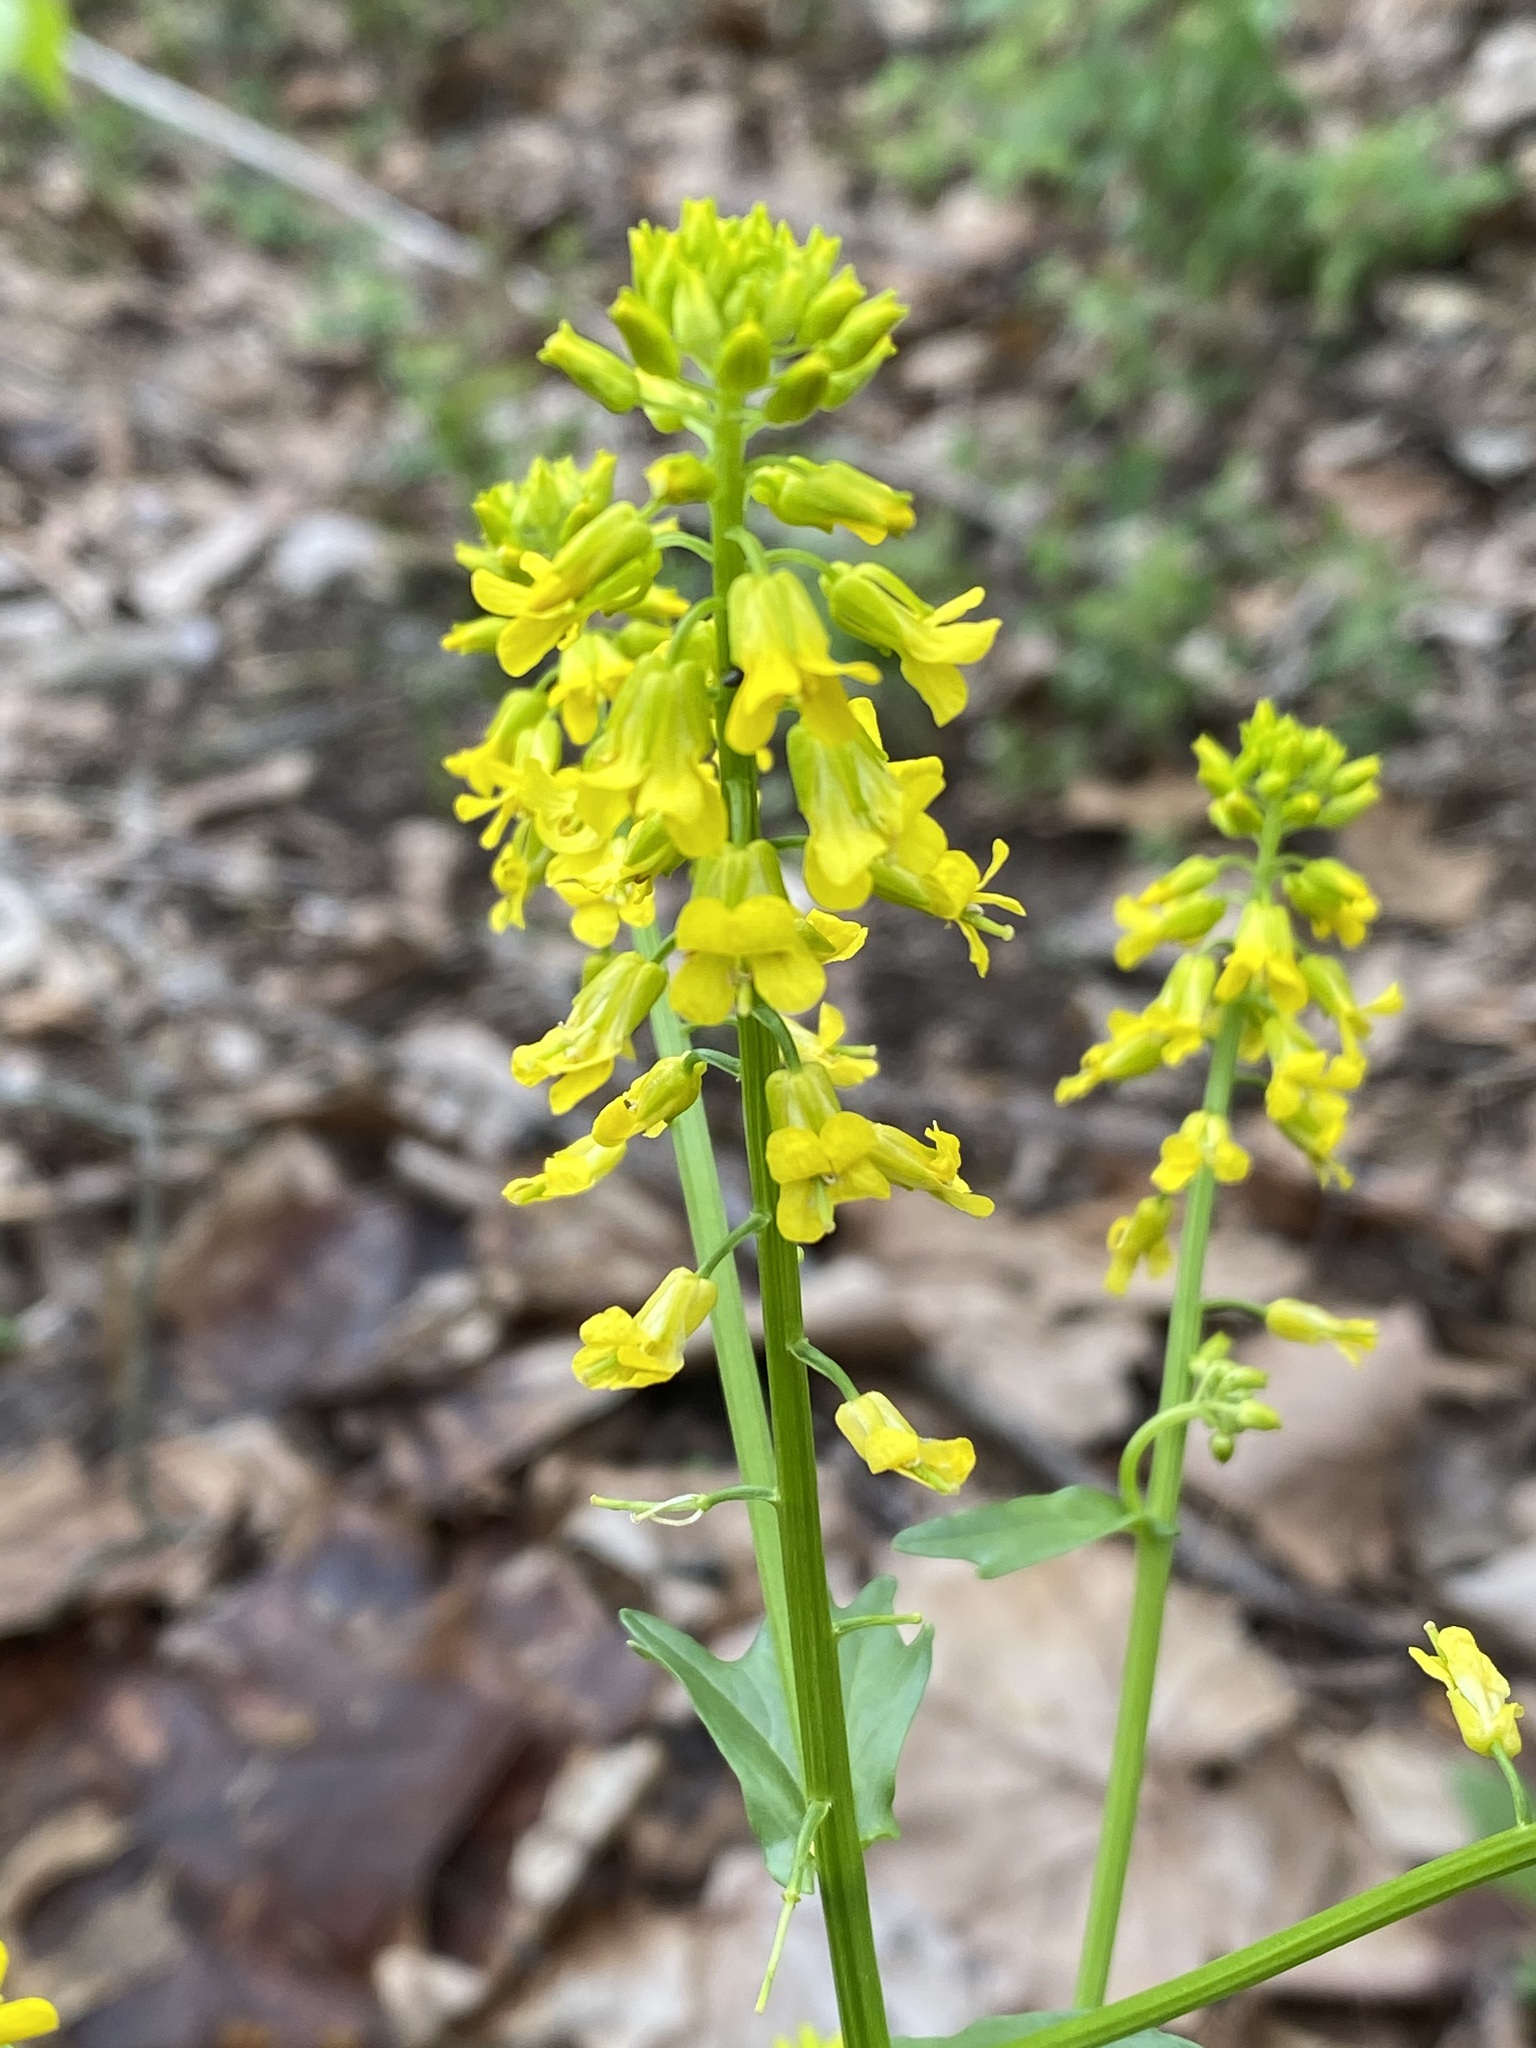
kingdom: Plantae
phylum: Tracheophyta
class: Magnoliopsida
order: Brassicales
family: Brassicaceae
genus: Barbarea
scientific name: Barbarea vulgaris
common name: Cressy-greens
